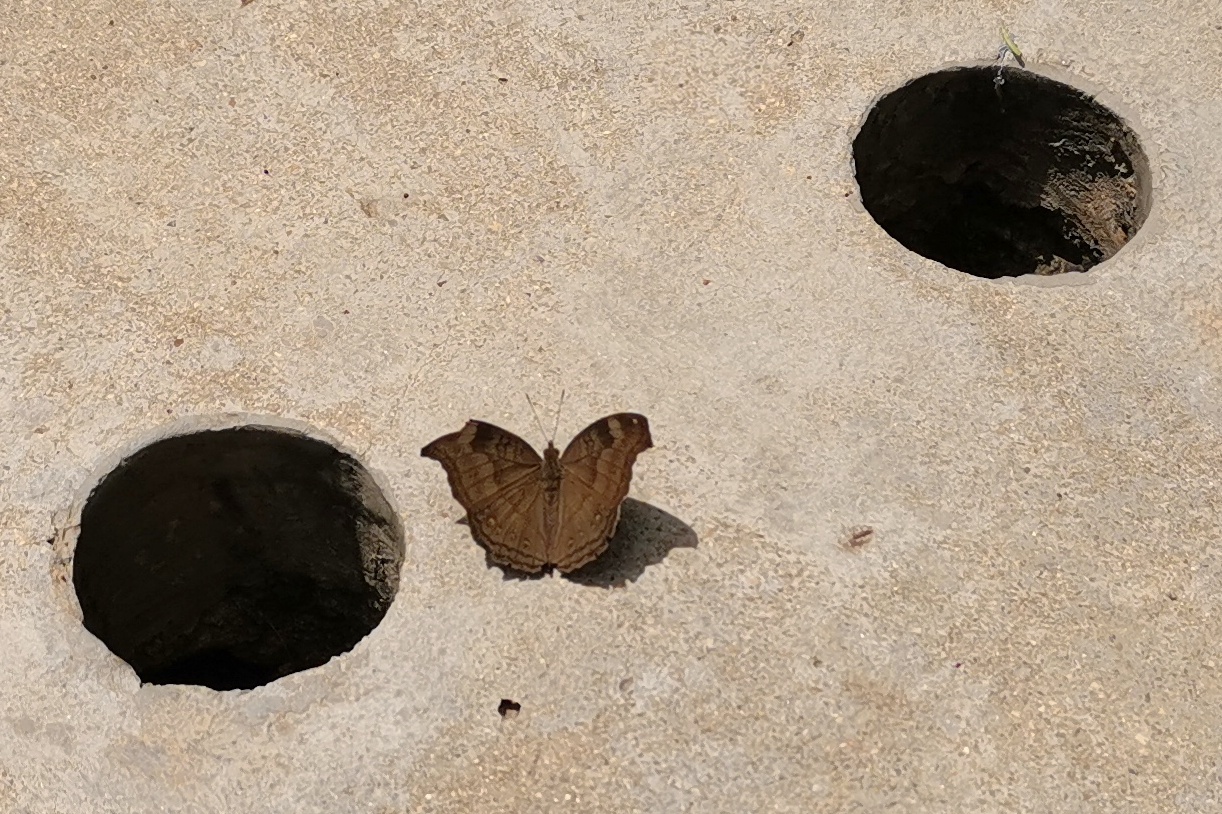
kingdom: Animalia
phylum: Arthropoda
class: Insecta
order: Lepidoptera
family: Nymphalidae
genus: Junonia
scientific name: Junonia iphita
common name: Chocolate pansy
